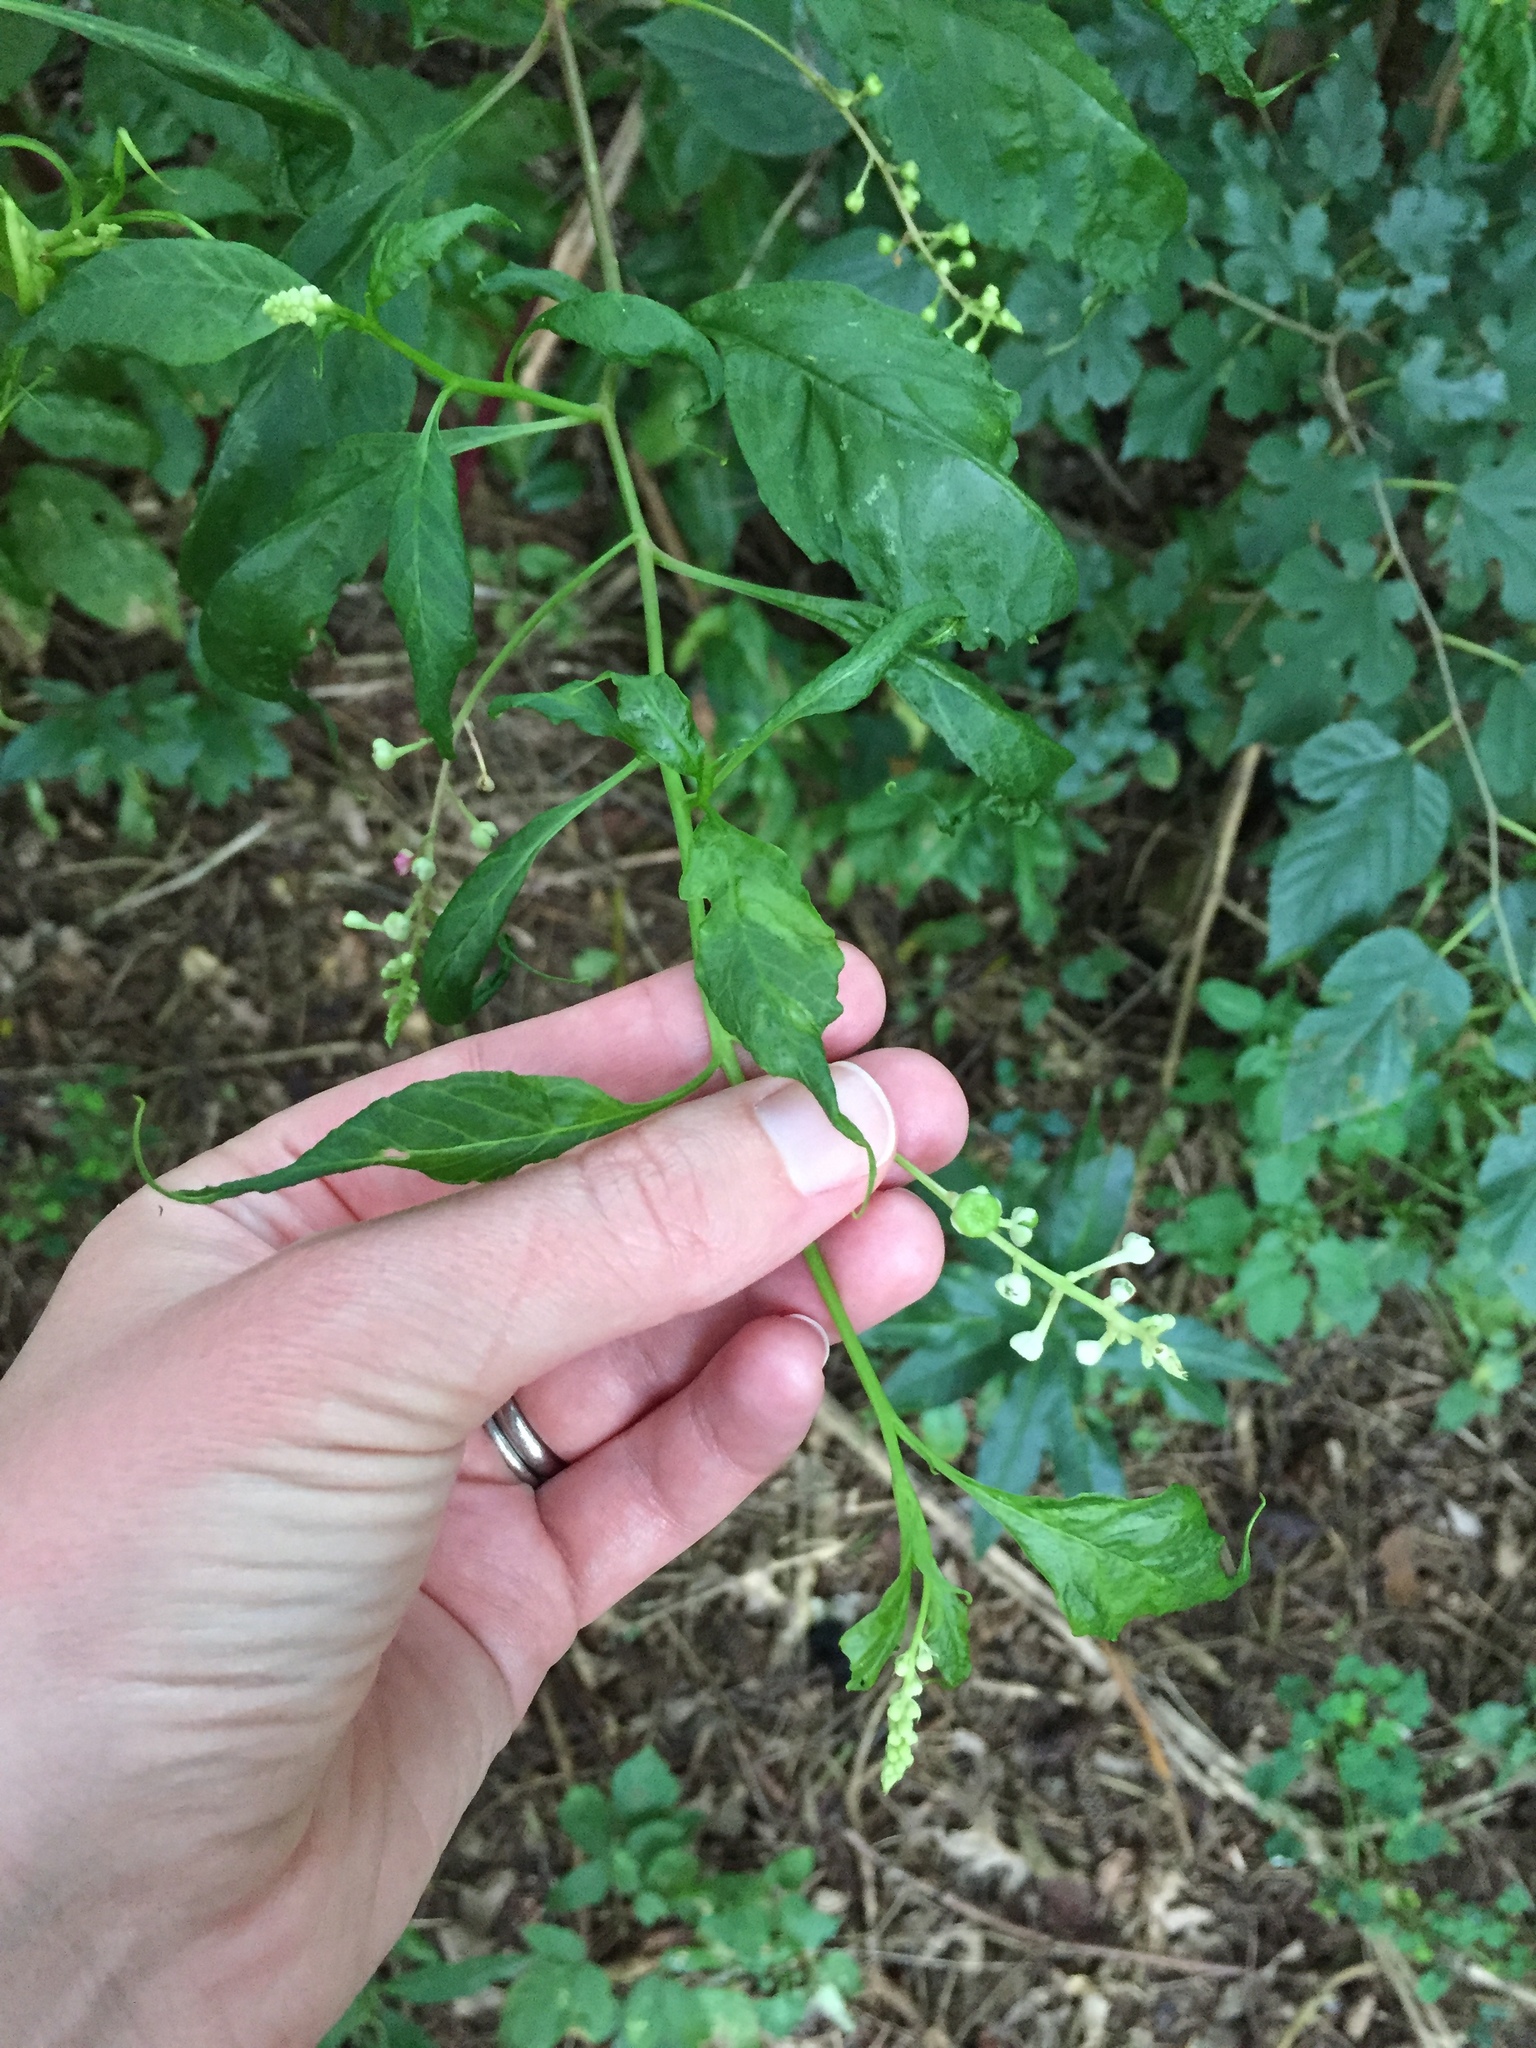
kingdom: Plantae
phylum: Tracheophyta
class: Magnoliopsida
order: Caryophyllales
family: Phytolaccaceae
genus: Phytolacca
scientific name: Phytolacca americana
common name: American pokeweed
